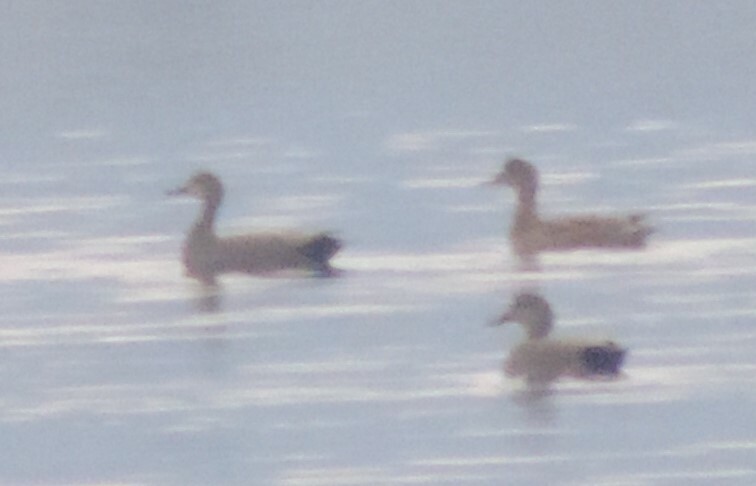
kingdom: Animalia
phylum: Chordata
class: Aves
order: Anseriformes
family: Anatidae
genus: Mareca
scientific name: Mareca strepera
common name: Gadwall
